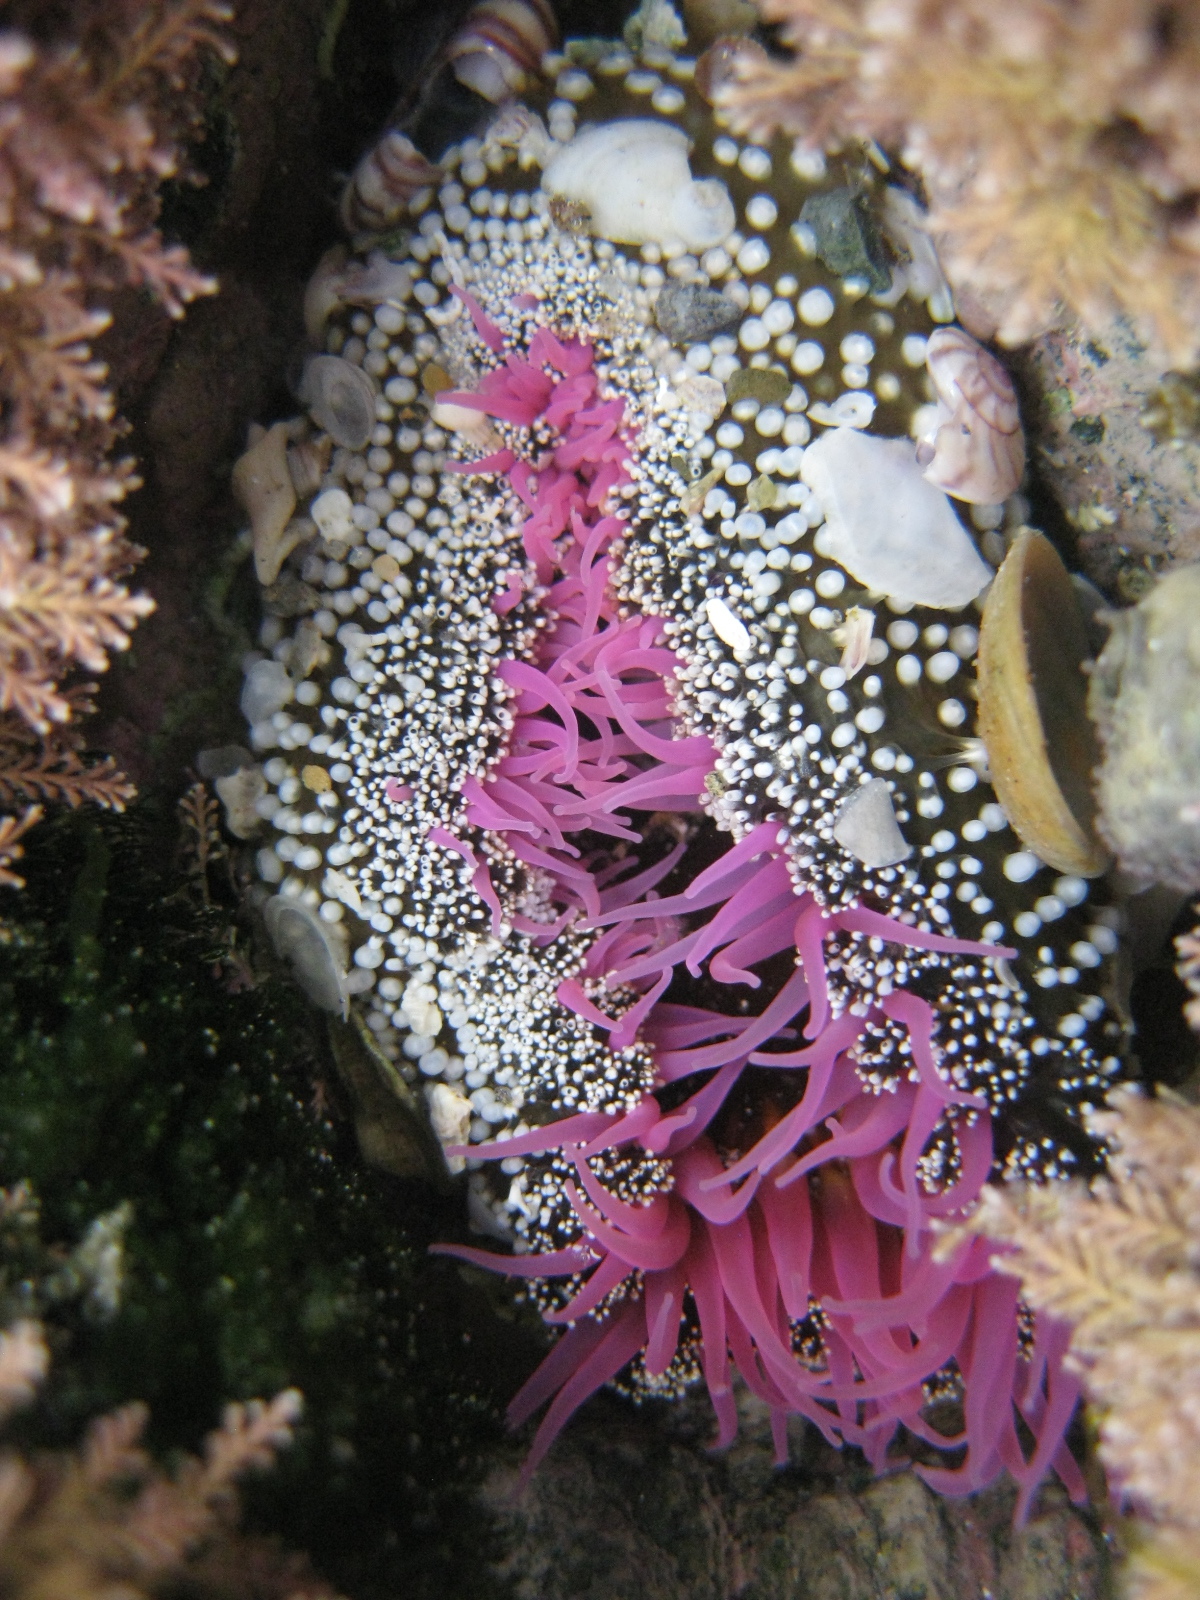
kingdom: Animalia
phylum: Cnidaria
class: Anthozoa
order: Actiniaria
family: Actiniidae
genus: Oulactis
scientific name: Oulactis magna
